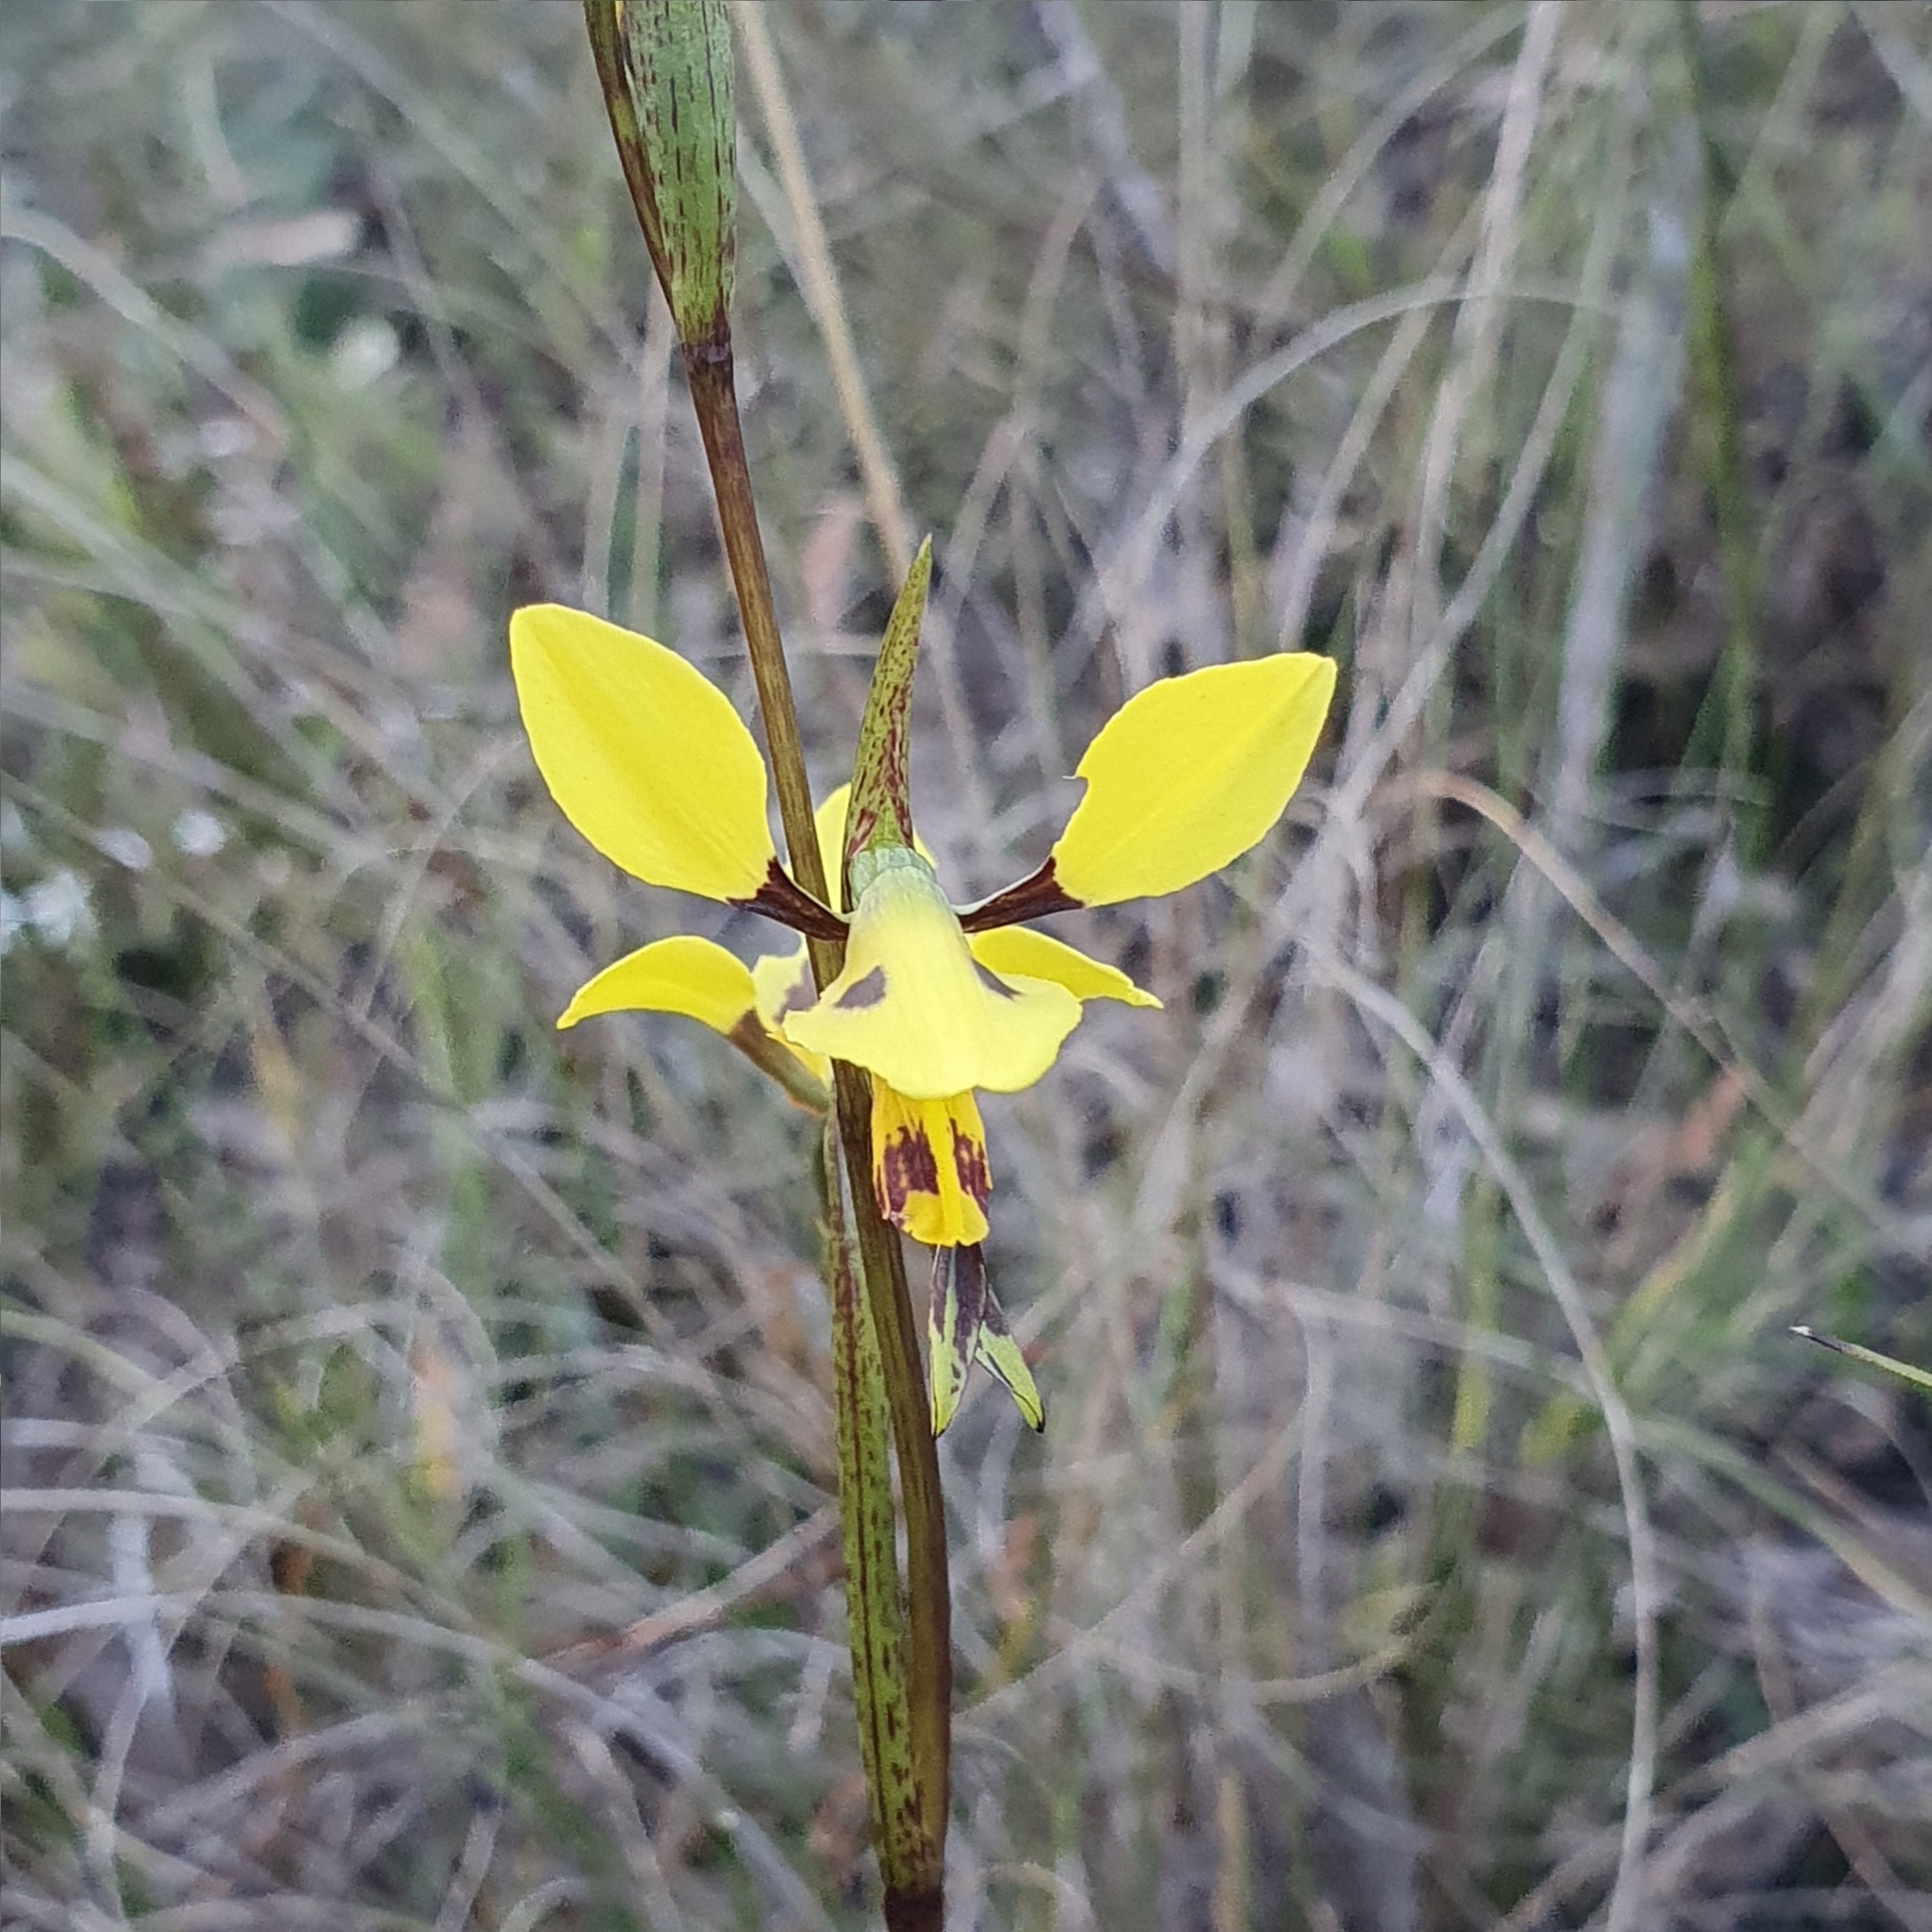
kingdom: Plantae
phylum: Tracheophyta
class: Liliopsida
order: Asparagales
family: Orchidaceae
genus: Diuris
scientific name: Diuris sulphurea
